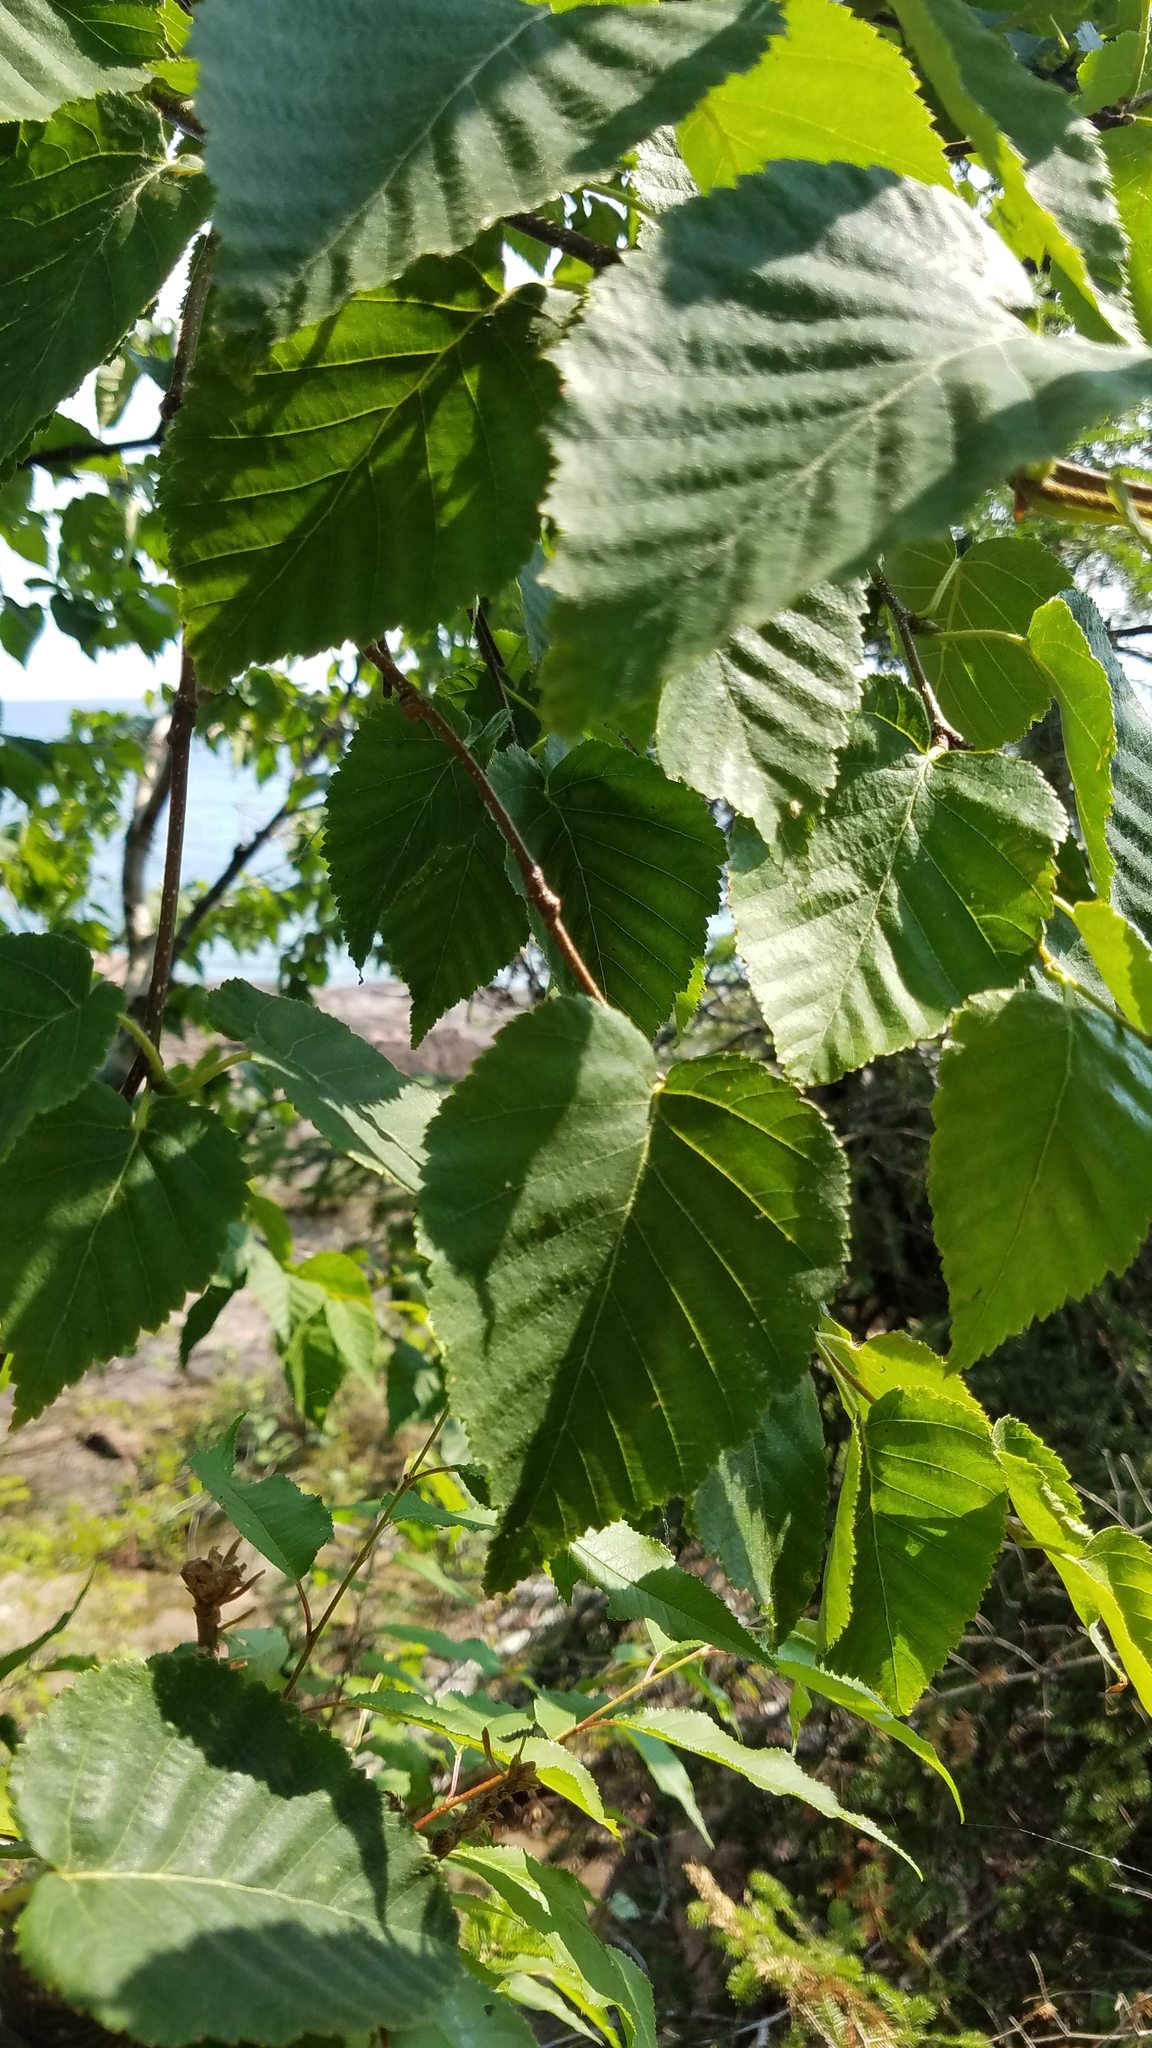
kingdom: Plantae
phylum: Tracheophyta
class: Magnoliopsida
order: Fagales
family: Betulaceae
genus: Betula
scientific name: Betula cordifolia
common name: Mountain white birch
